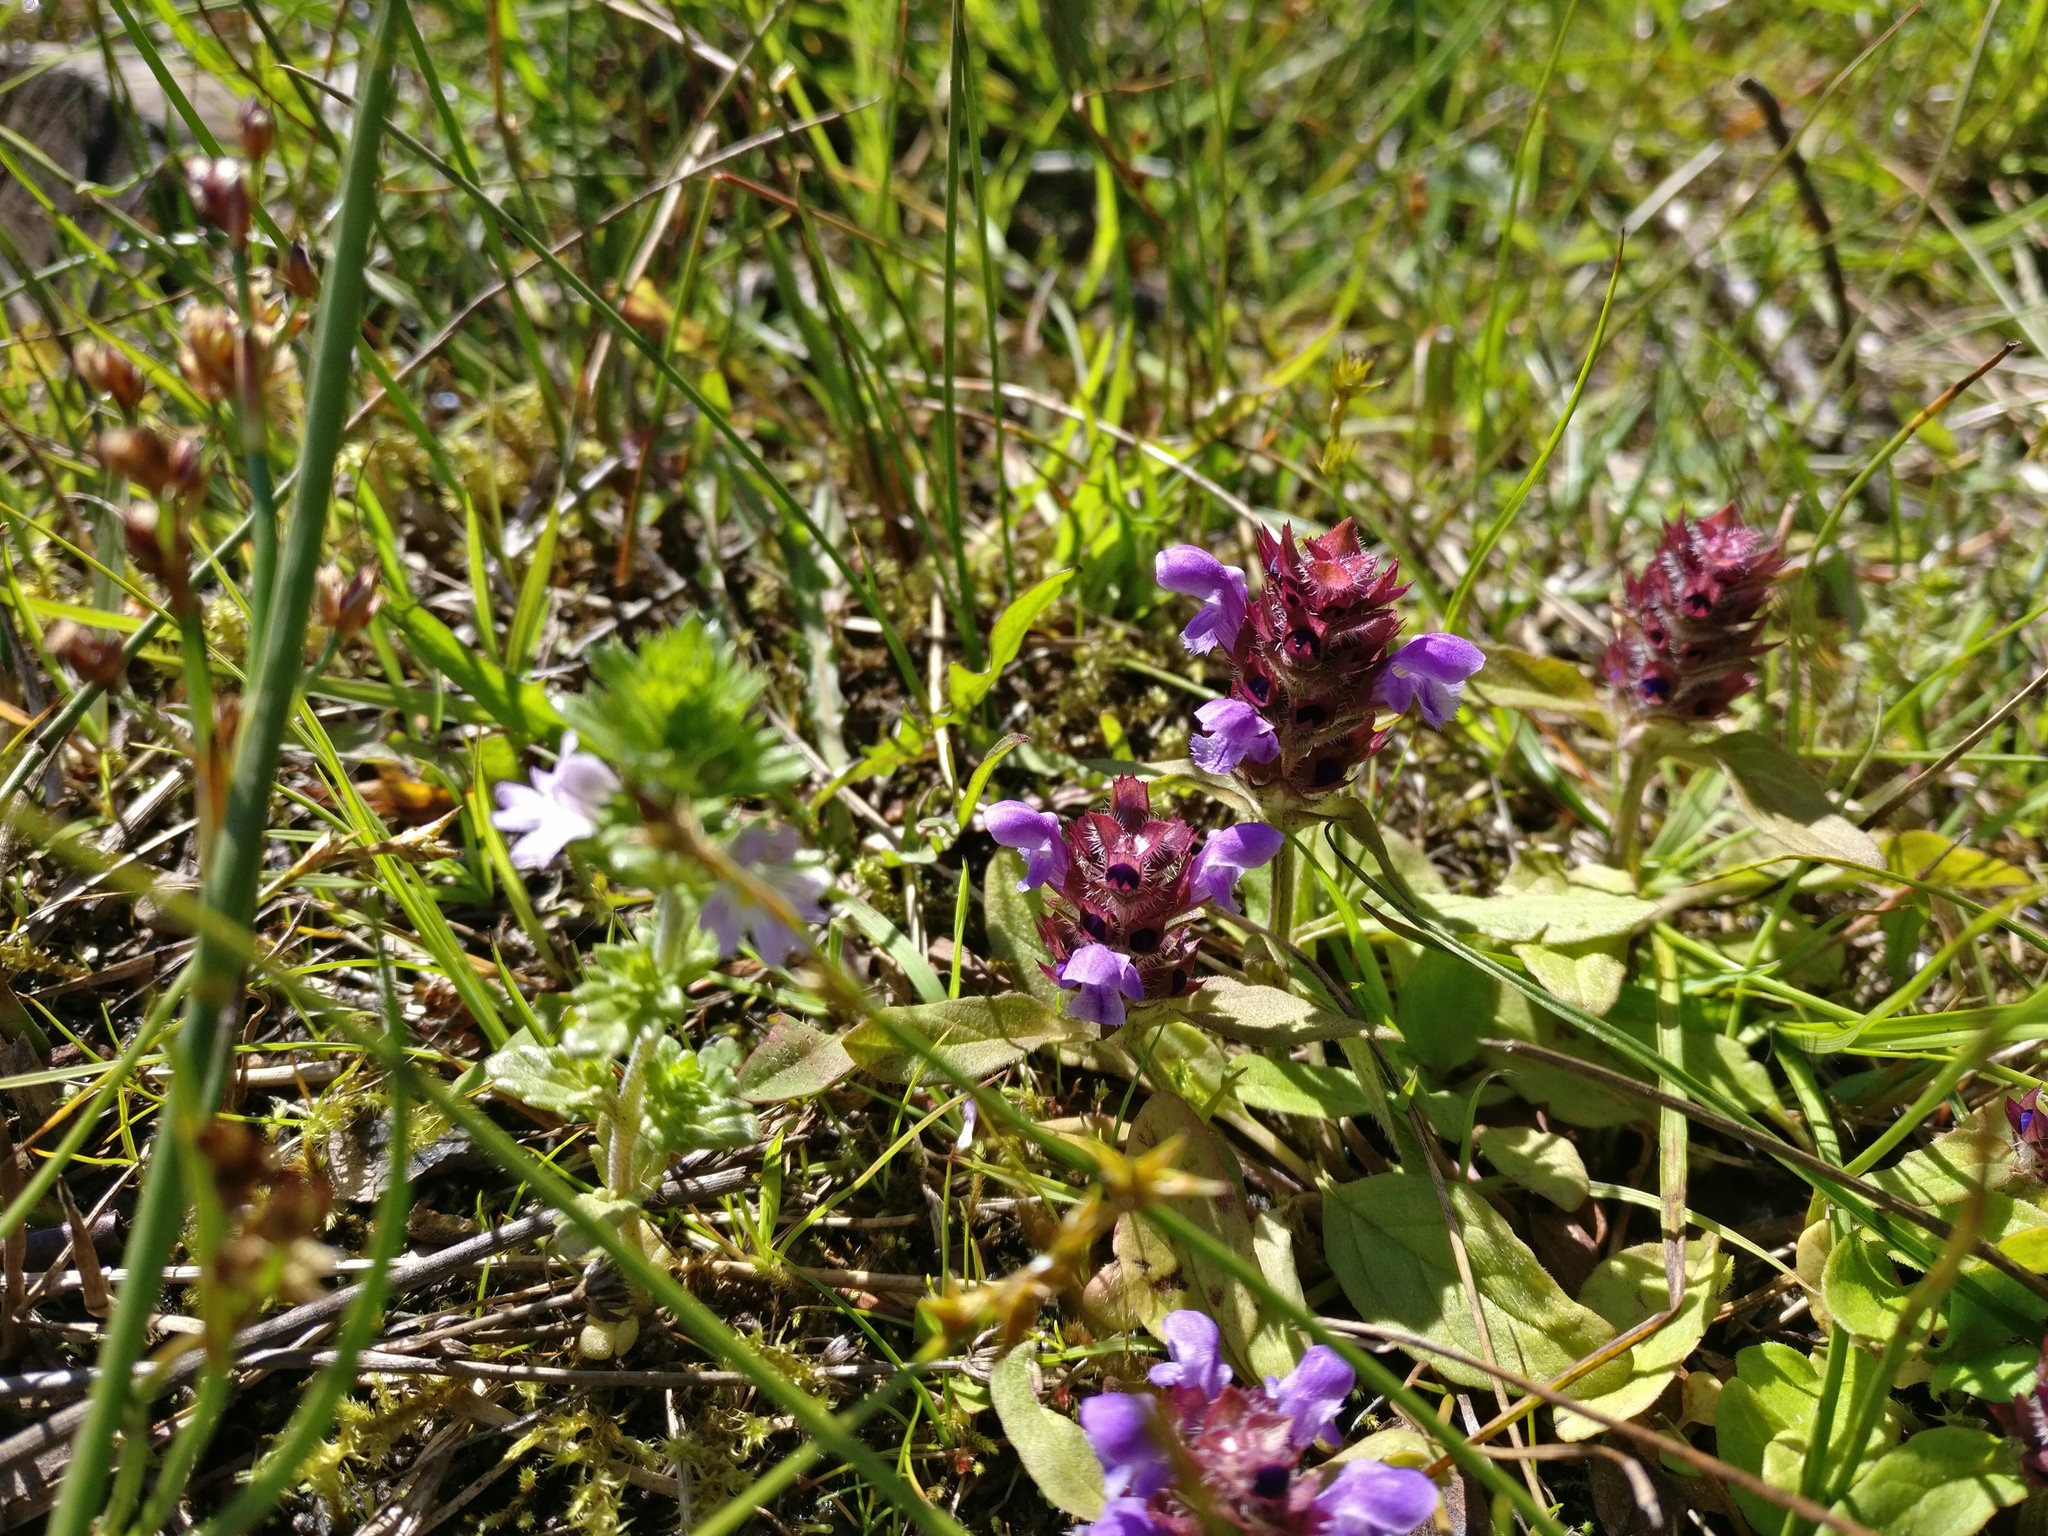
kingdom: Plantae
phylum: Tracheophyta
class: Magnoliopsida
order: Lamiales
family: Lamiaceae
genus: Prunella
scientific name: Prunella vulgaris
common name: Heal-all
